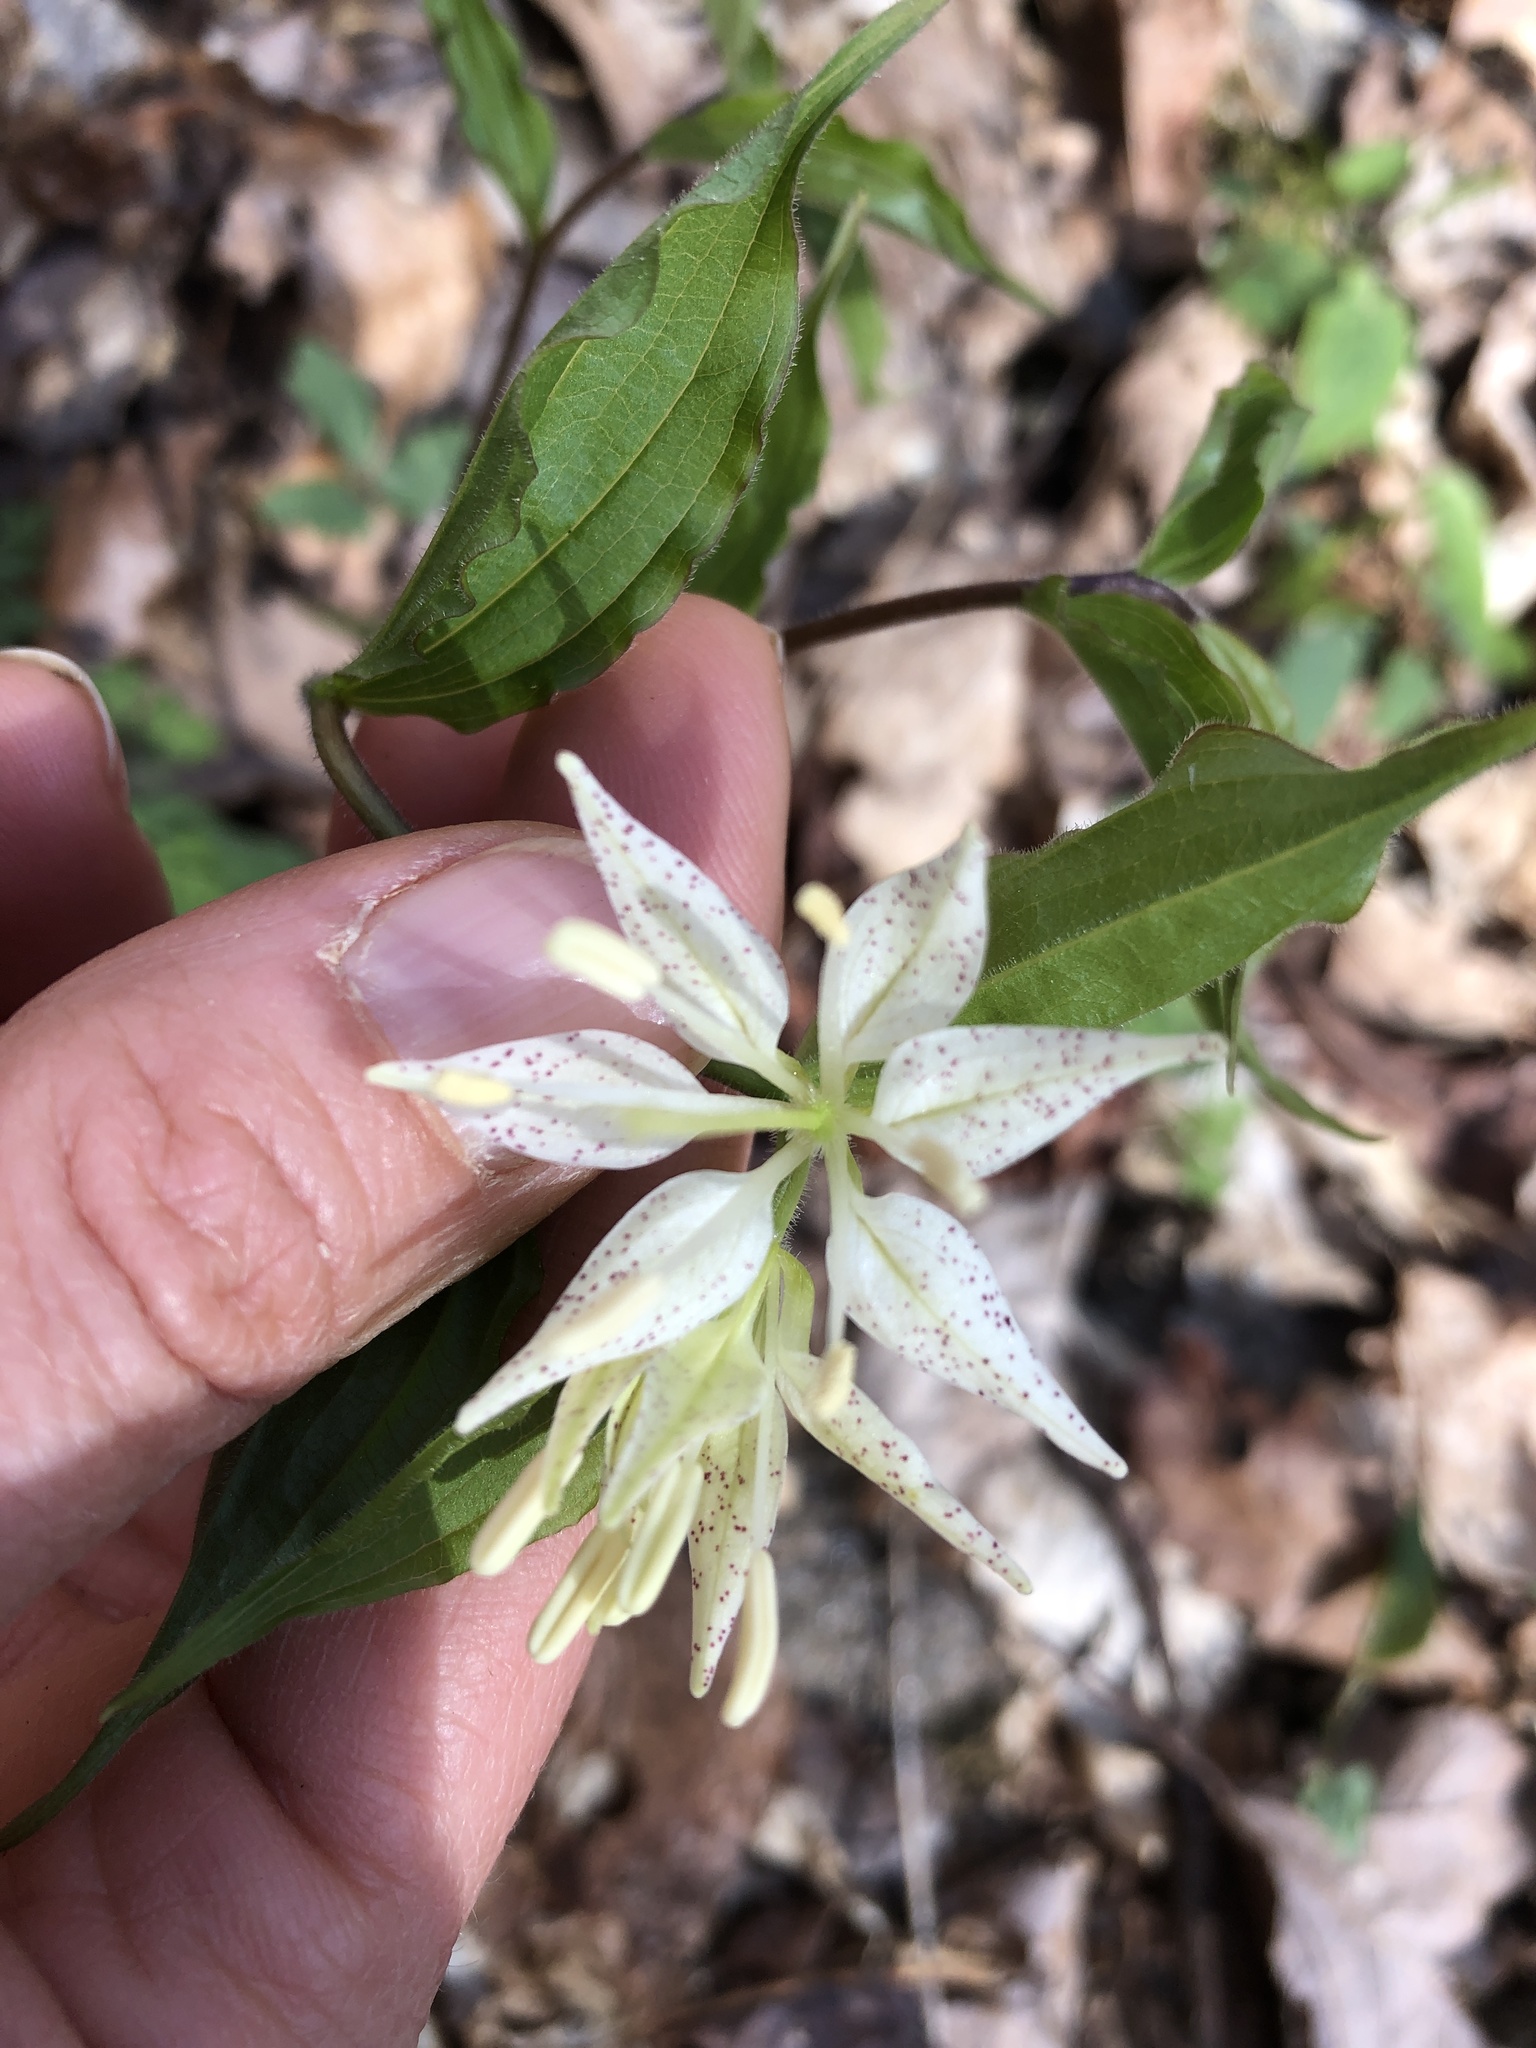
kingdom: Plantae
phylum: Tracheophyta
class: Liliopsida
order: Liliales
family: Liliaceae
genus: Prosartes
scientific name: Prosartes maculata
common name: Yellow mandarin
